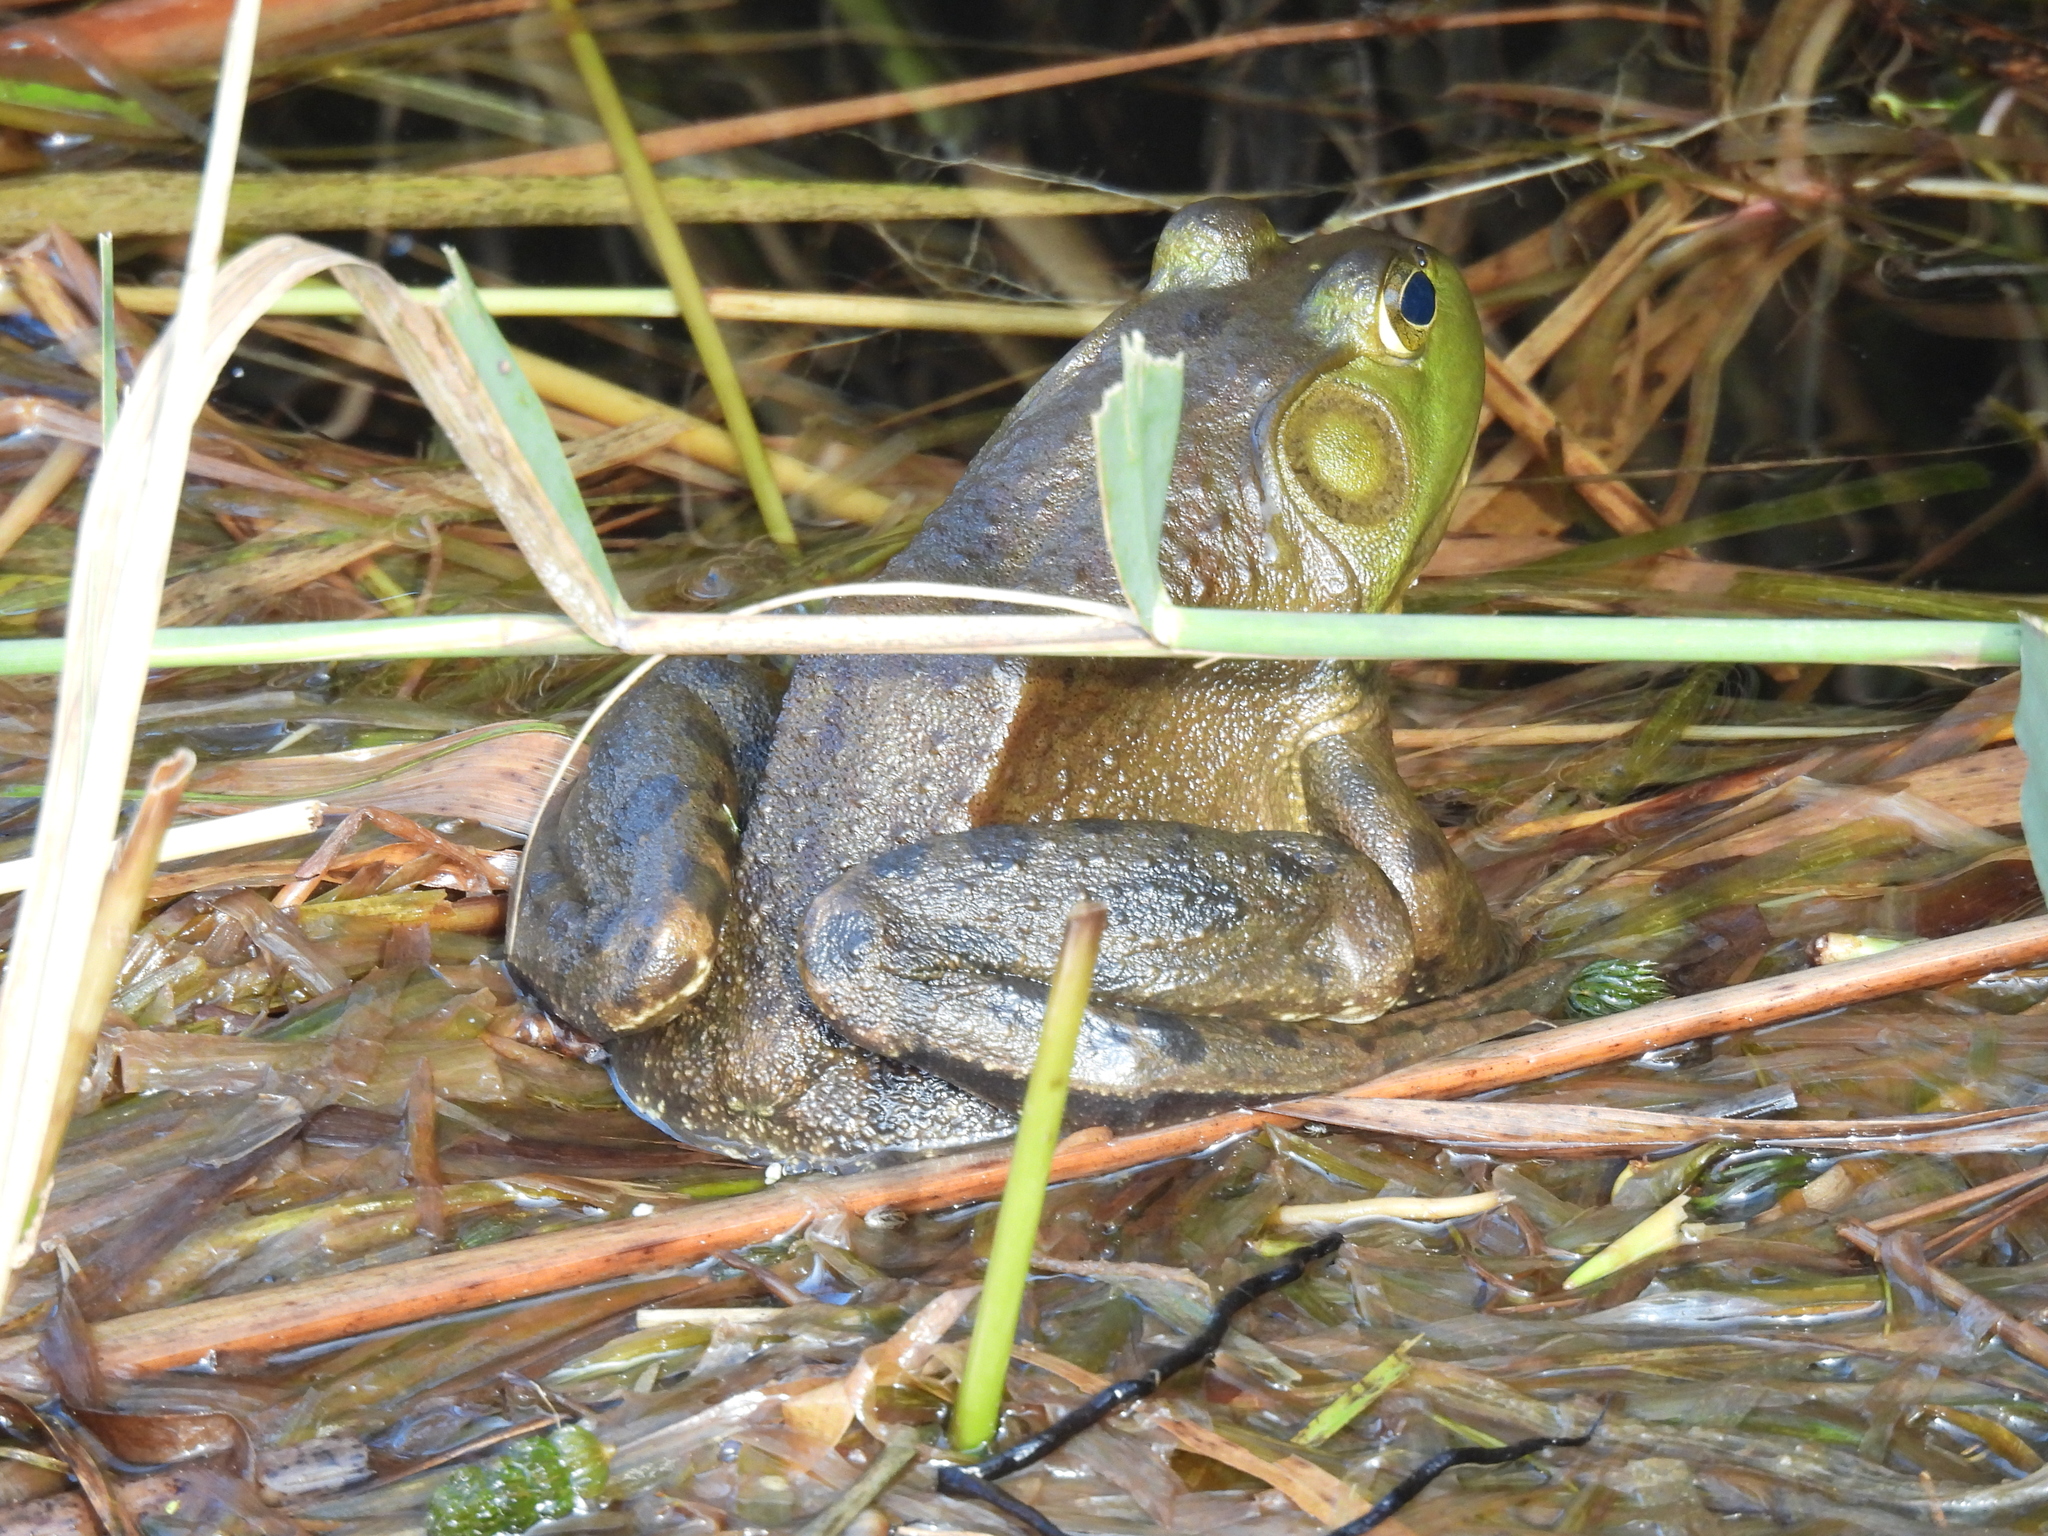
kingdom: Animalia
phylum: Chordata
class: Amphibia
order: Anura
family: Ranidae
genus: Lithobates
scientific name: Lithobates catesbeianus
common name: American bullfrog
